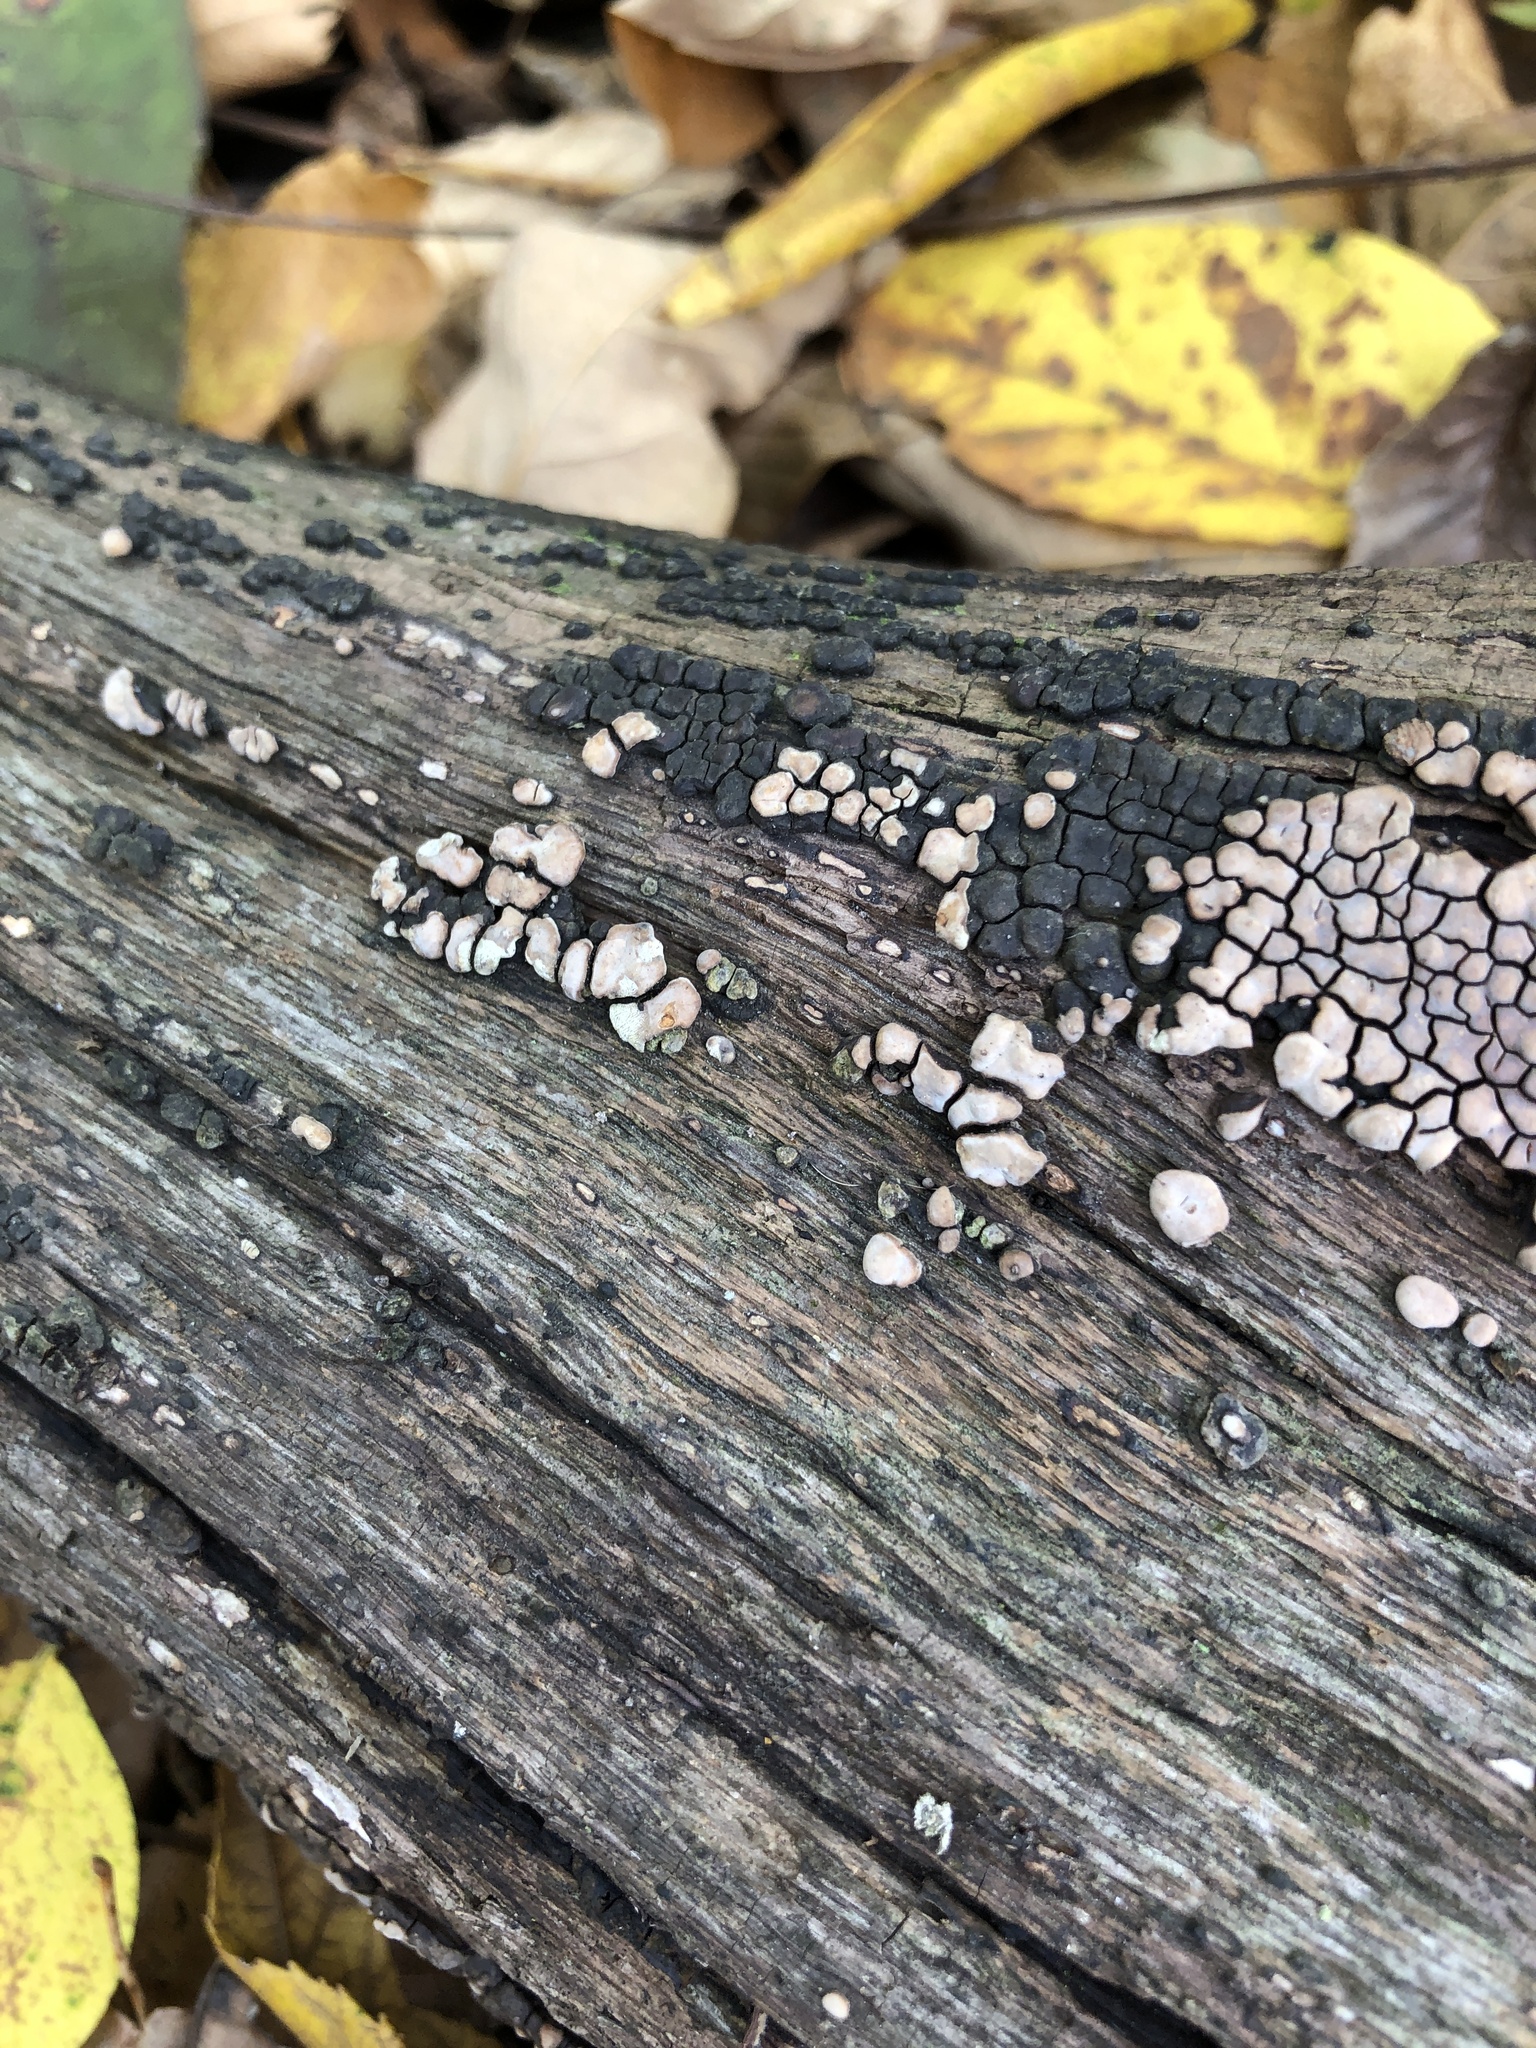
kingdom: Fungi
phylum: Basidiomycota
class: Agaricomycetes
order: Russulales
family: Stereaceae
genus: Xylobolus
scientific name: Xylobolus frustulatus
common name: Ceramic parchment
